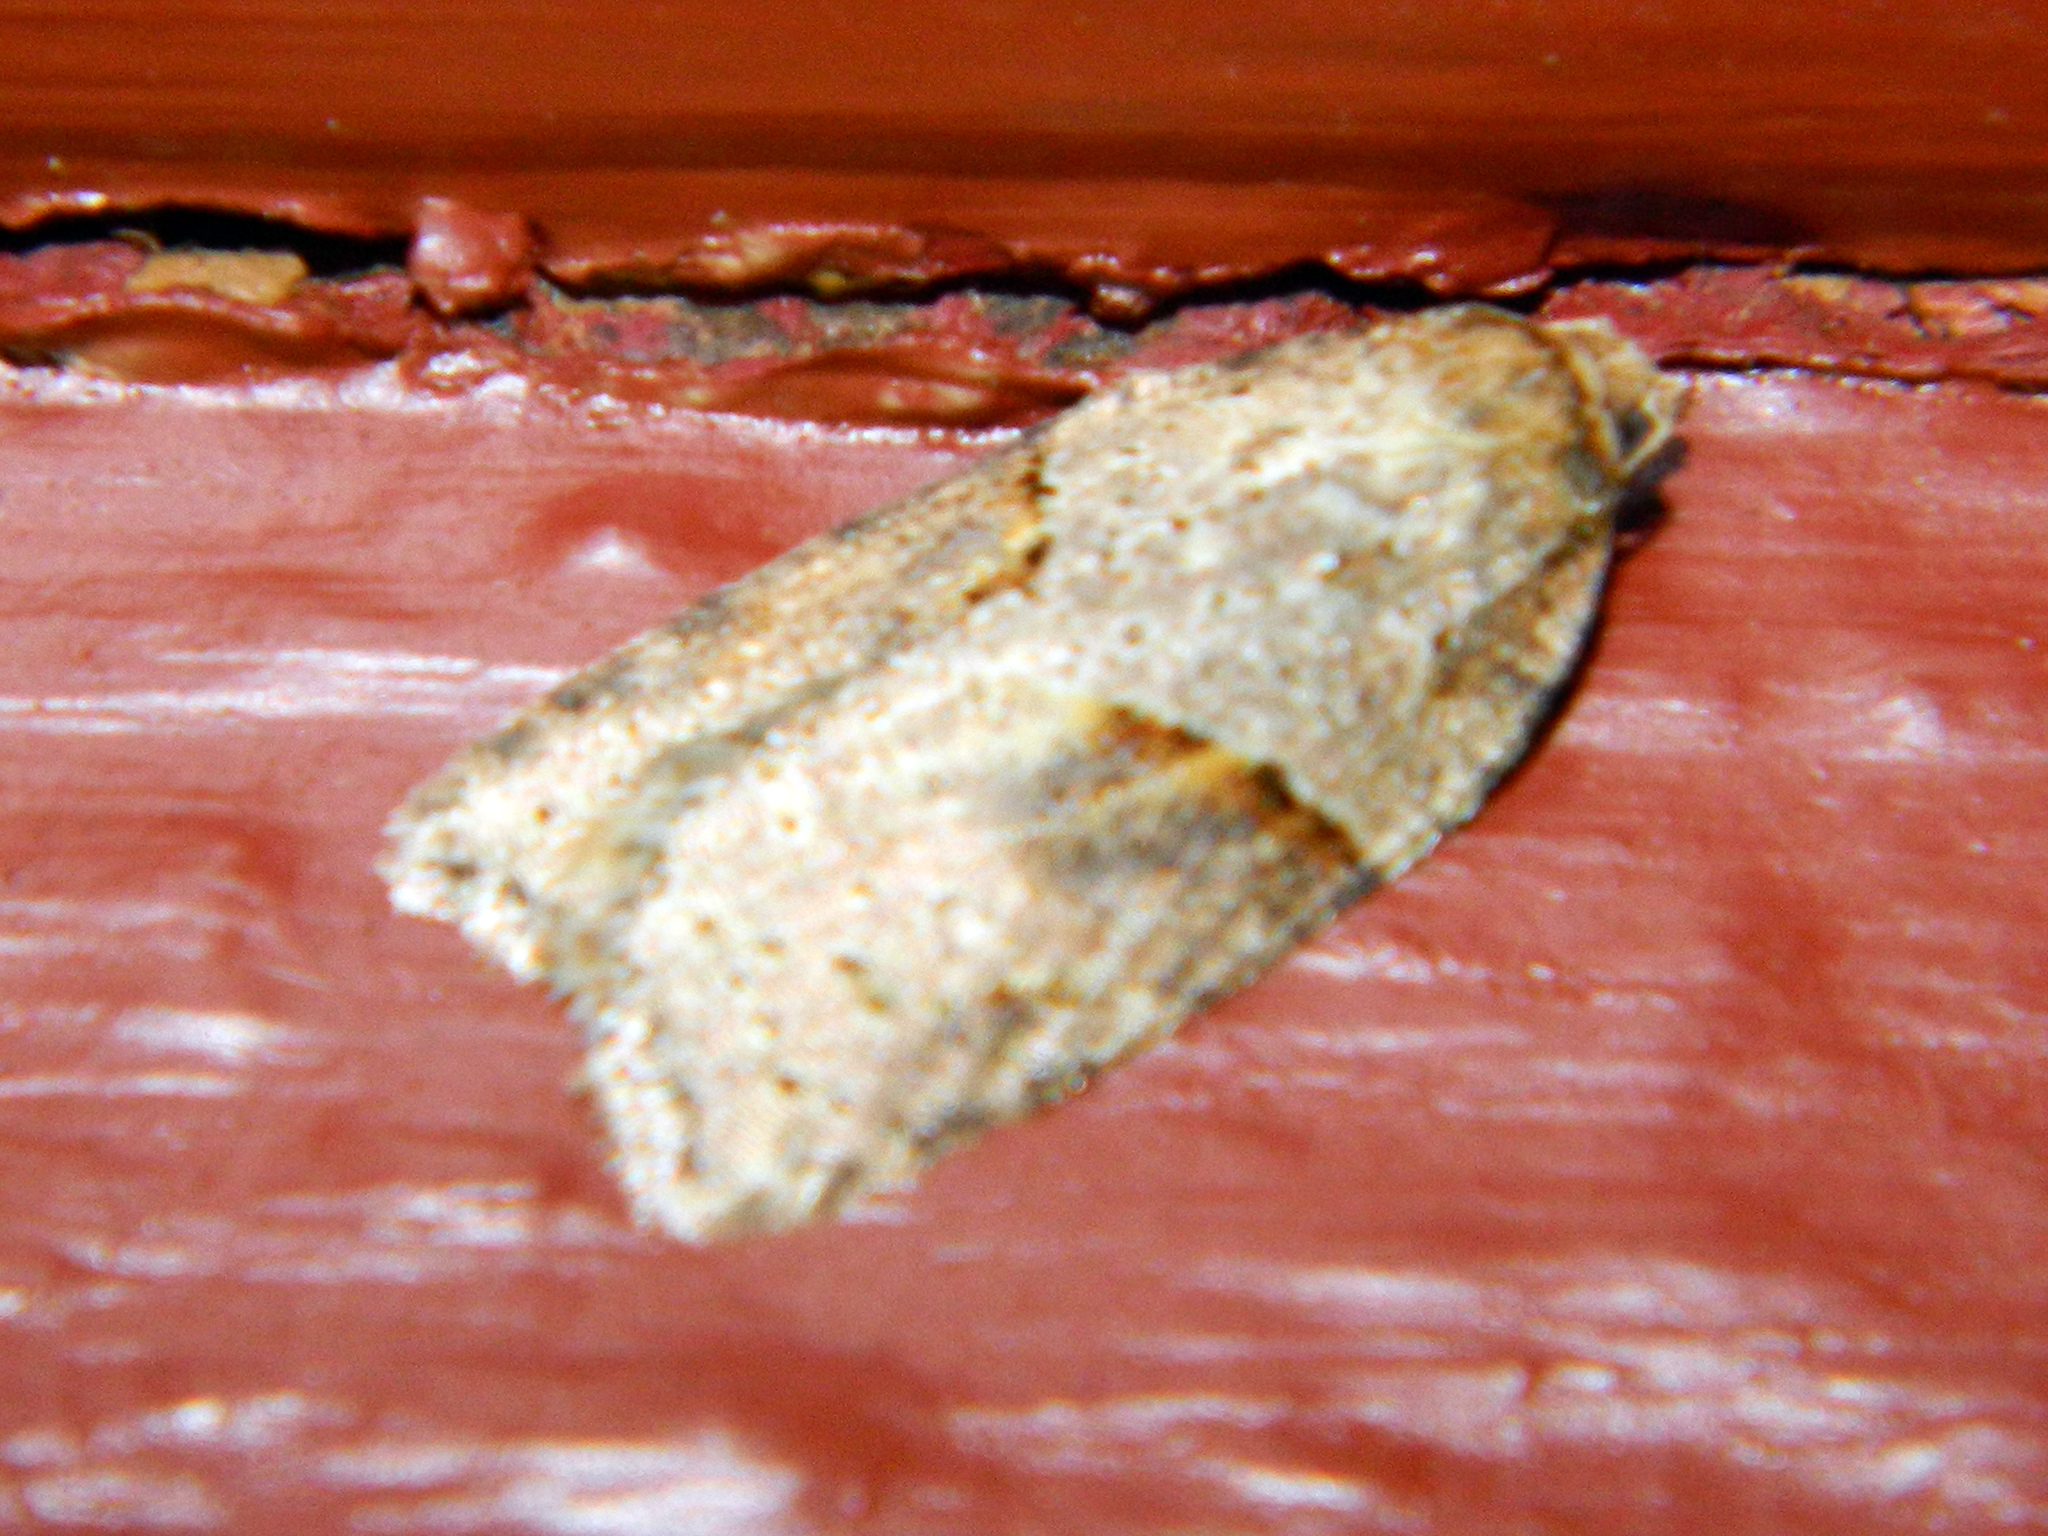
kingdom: Animalia
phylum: Arthropoda
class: Insecta
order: Lepidoptera
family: Tortricidae
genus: Acleris
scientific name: Acleris maccana
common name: Marbled button
